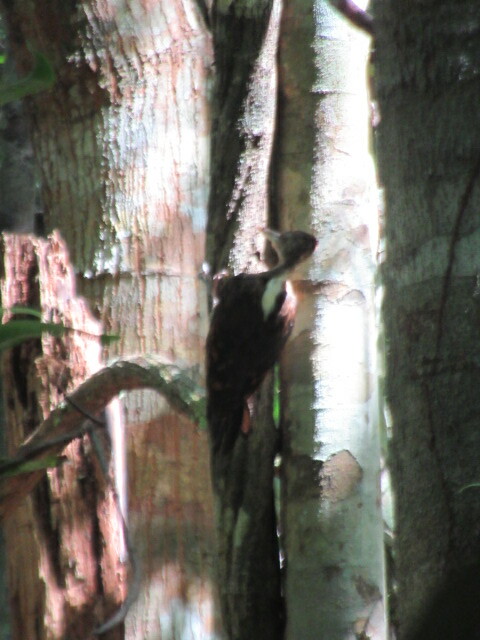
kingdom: Animalia
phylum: Chordata
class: Aves
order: Piciformes
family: Picidae
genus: Reinwardtipicus
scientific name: Reinwardtipicus validus
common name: Orange-backed woodpecker
